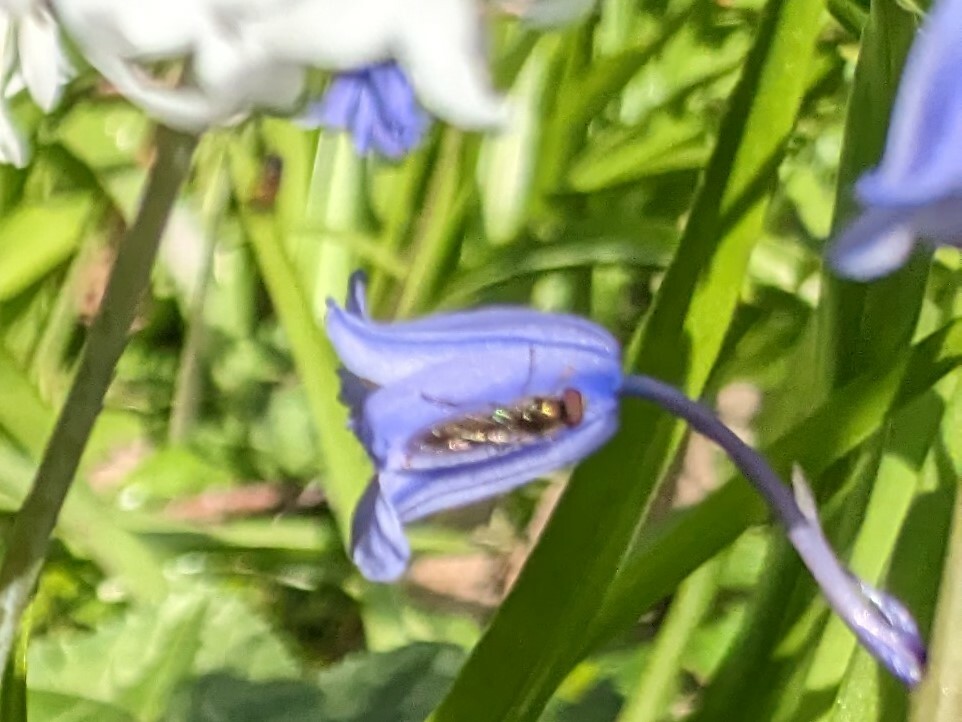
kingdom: Animalia
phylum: Arthropoda
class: Insecta
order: Diptera
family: Syrphidae
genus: Platycheirus
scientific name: Platycheirus
